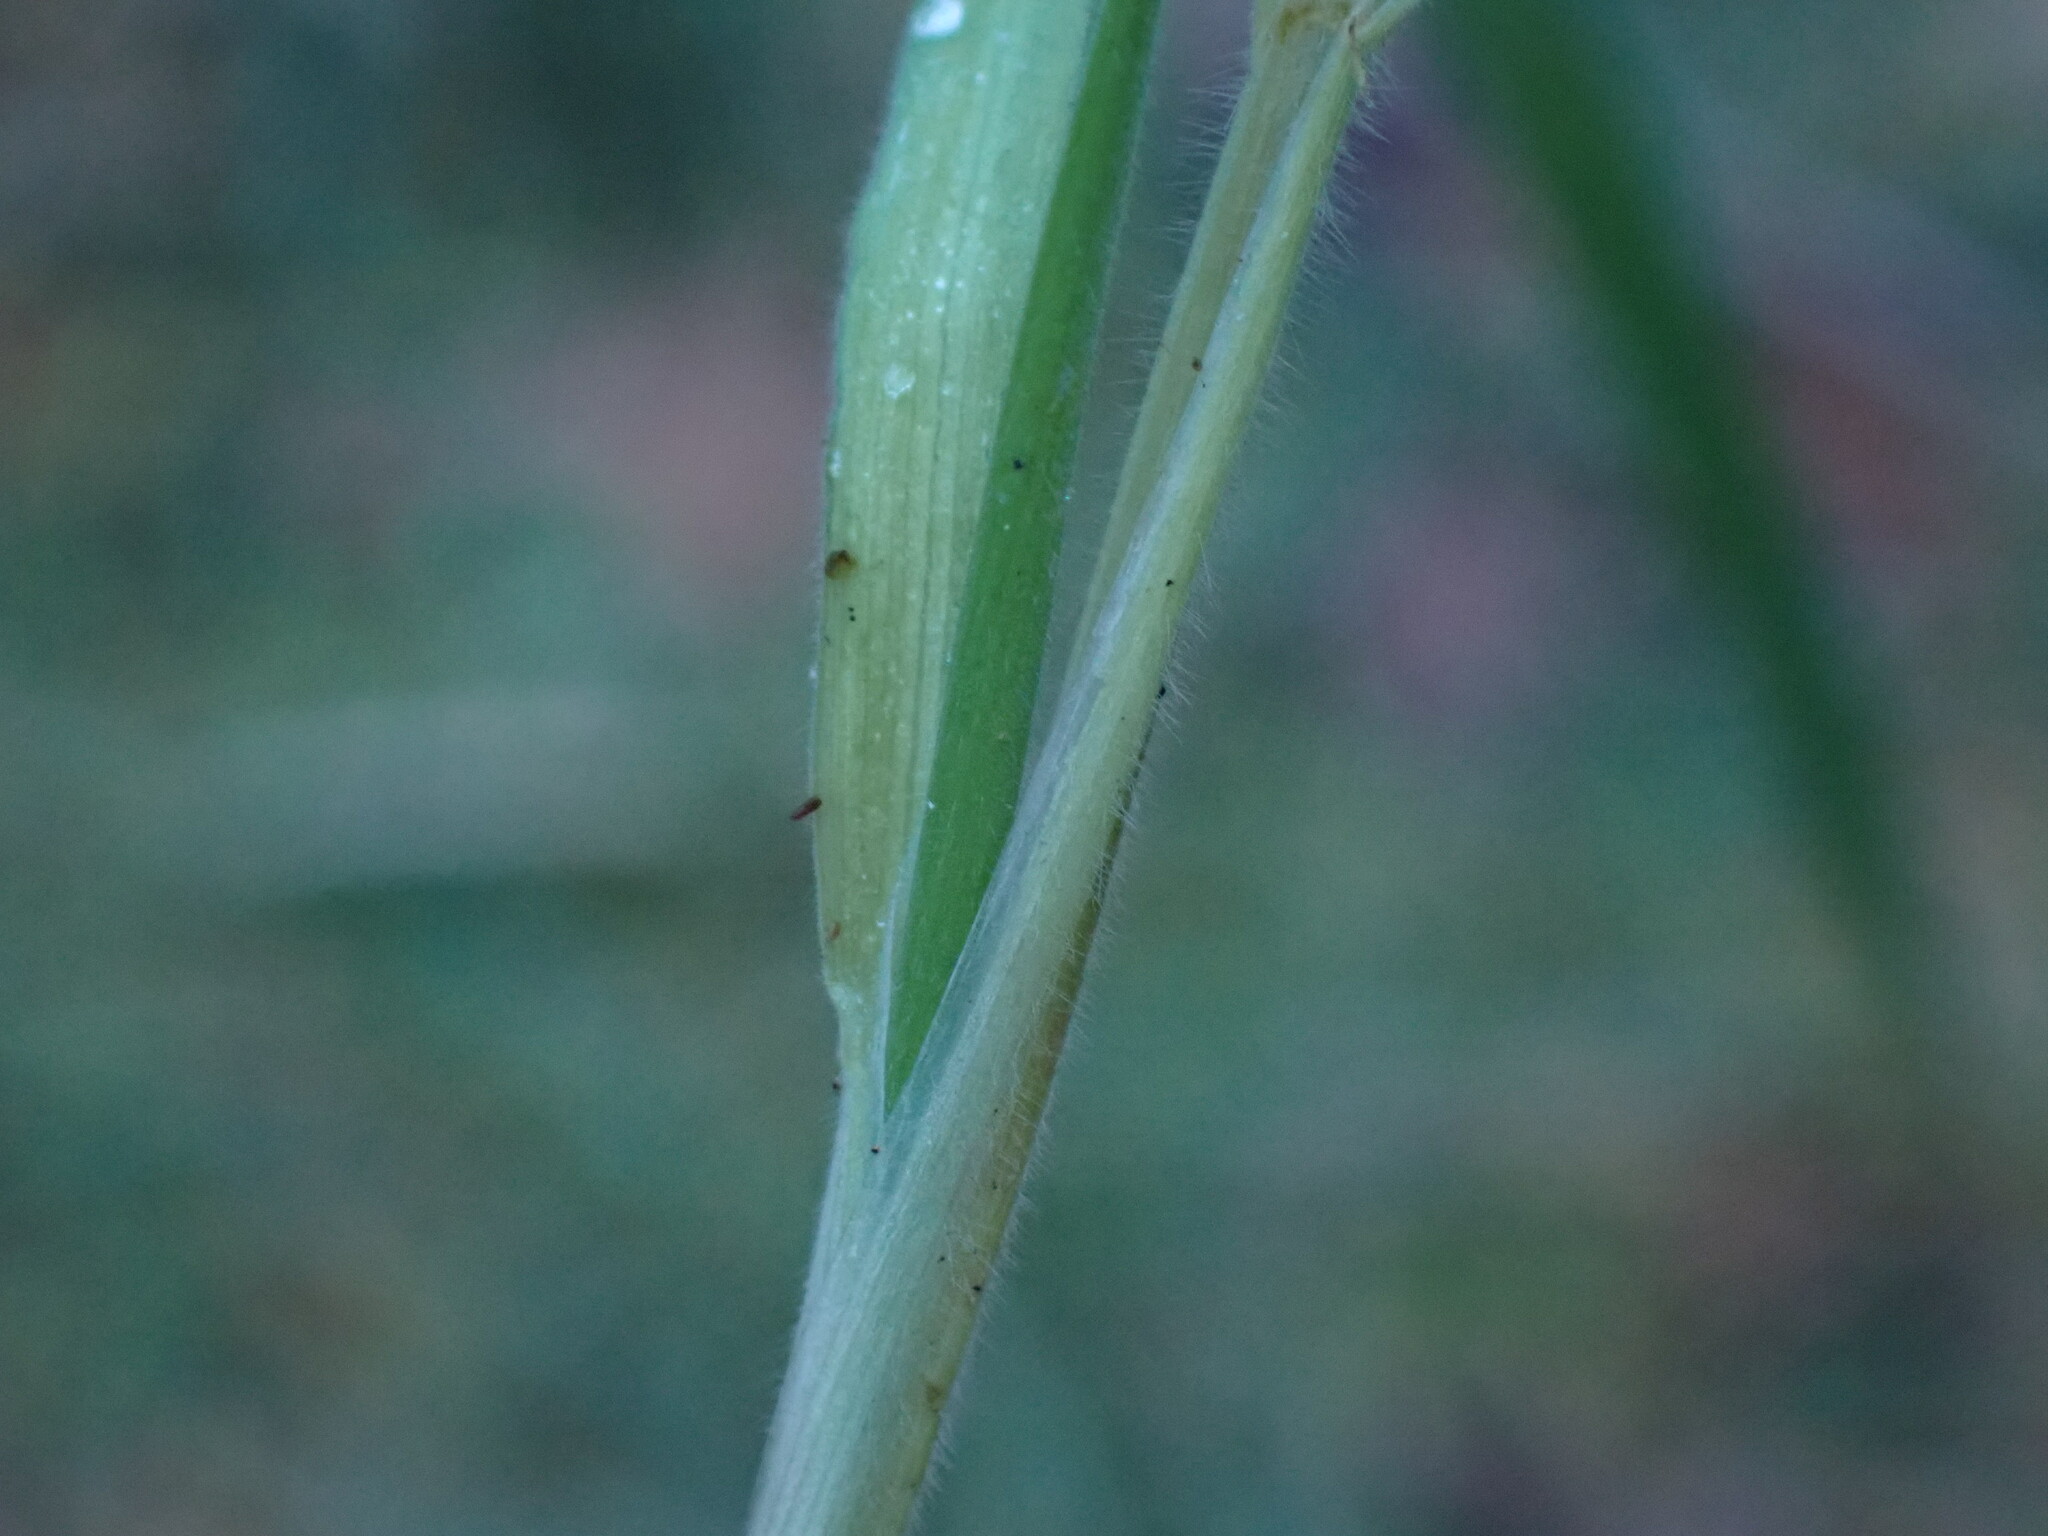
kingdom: Plantae
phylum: Tracheophyta
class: Liliopsida
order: Poales
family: Poaceae
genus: Holcus
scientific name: Holcus lanatus
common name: Yorkshire-fog
